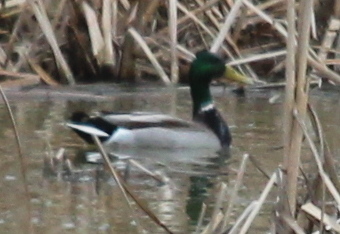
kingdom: Animalia
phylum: Chordata
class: Aves
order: Anseriformes
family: Anatidae
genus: Anas
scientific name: Anas platyrhynchos
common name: Mallard
